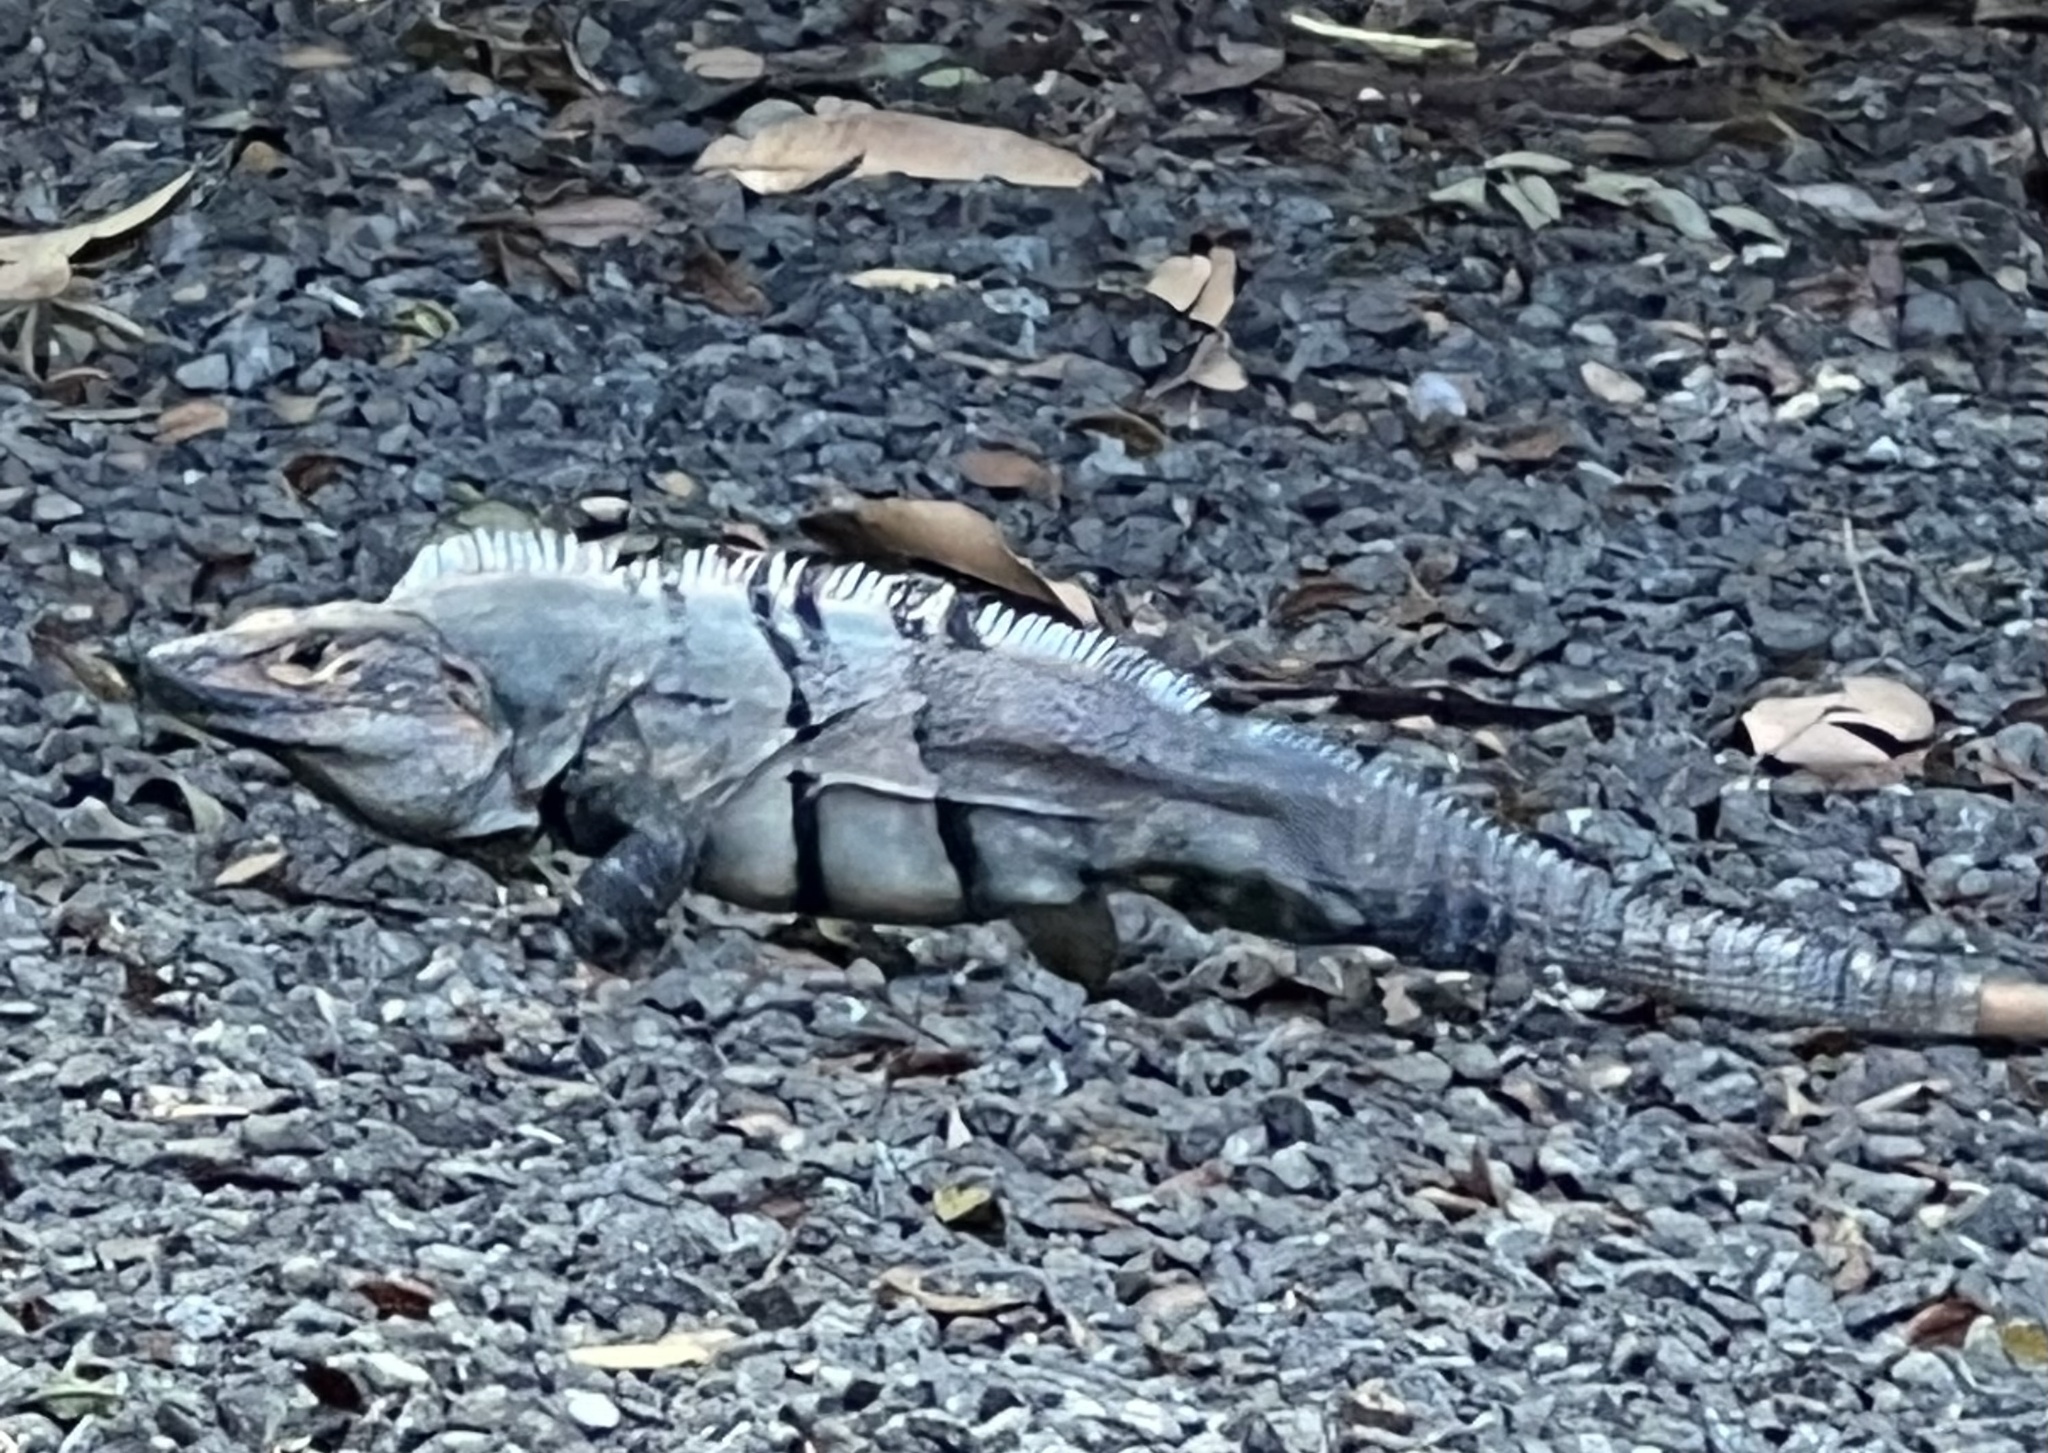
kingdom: Animalia
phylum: Chordata
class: Squamata
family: Iguanidae
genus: Ctenosaura
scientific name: Ctenosaura similis
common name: Black spiny-tailed iguana
